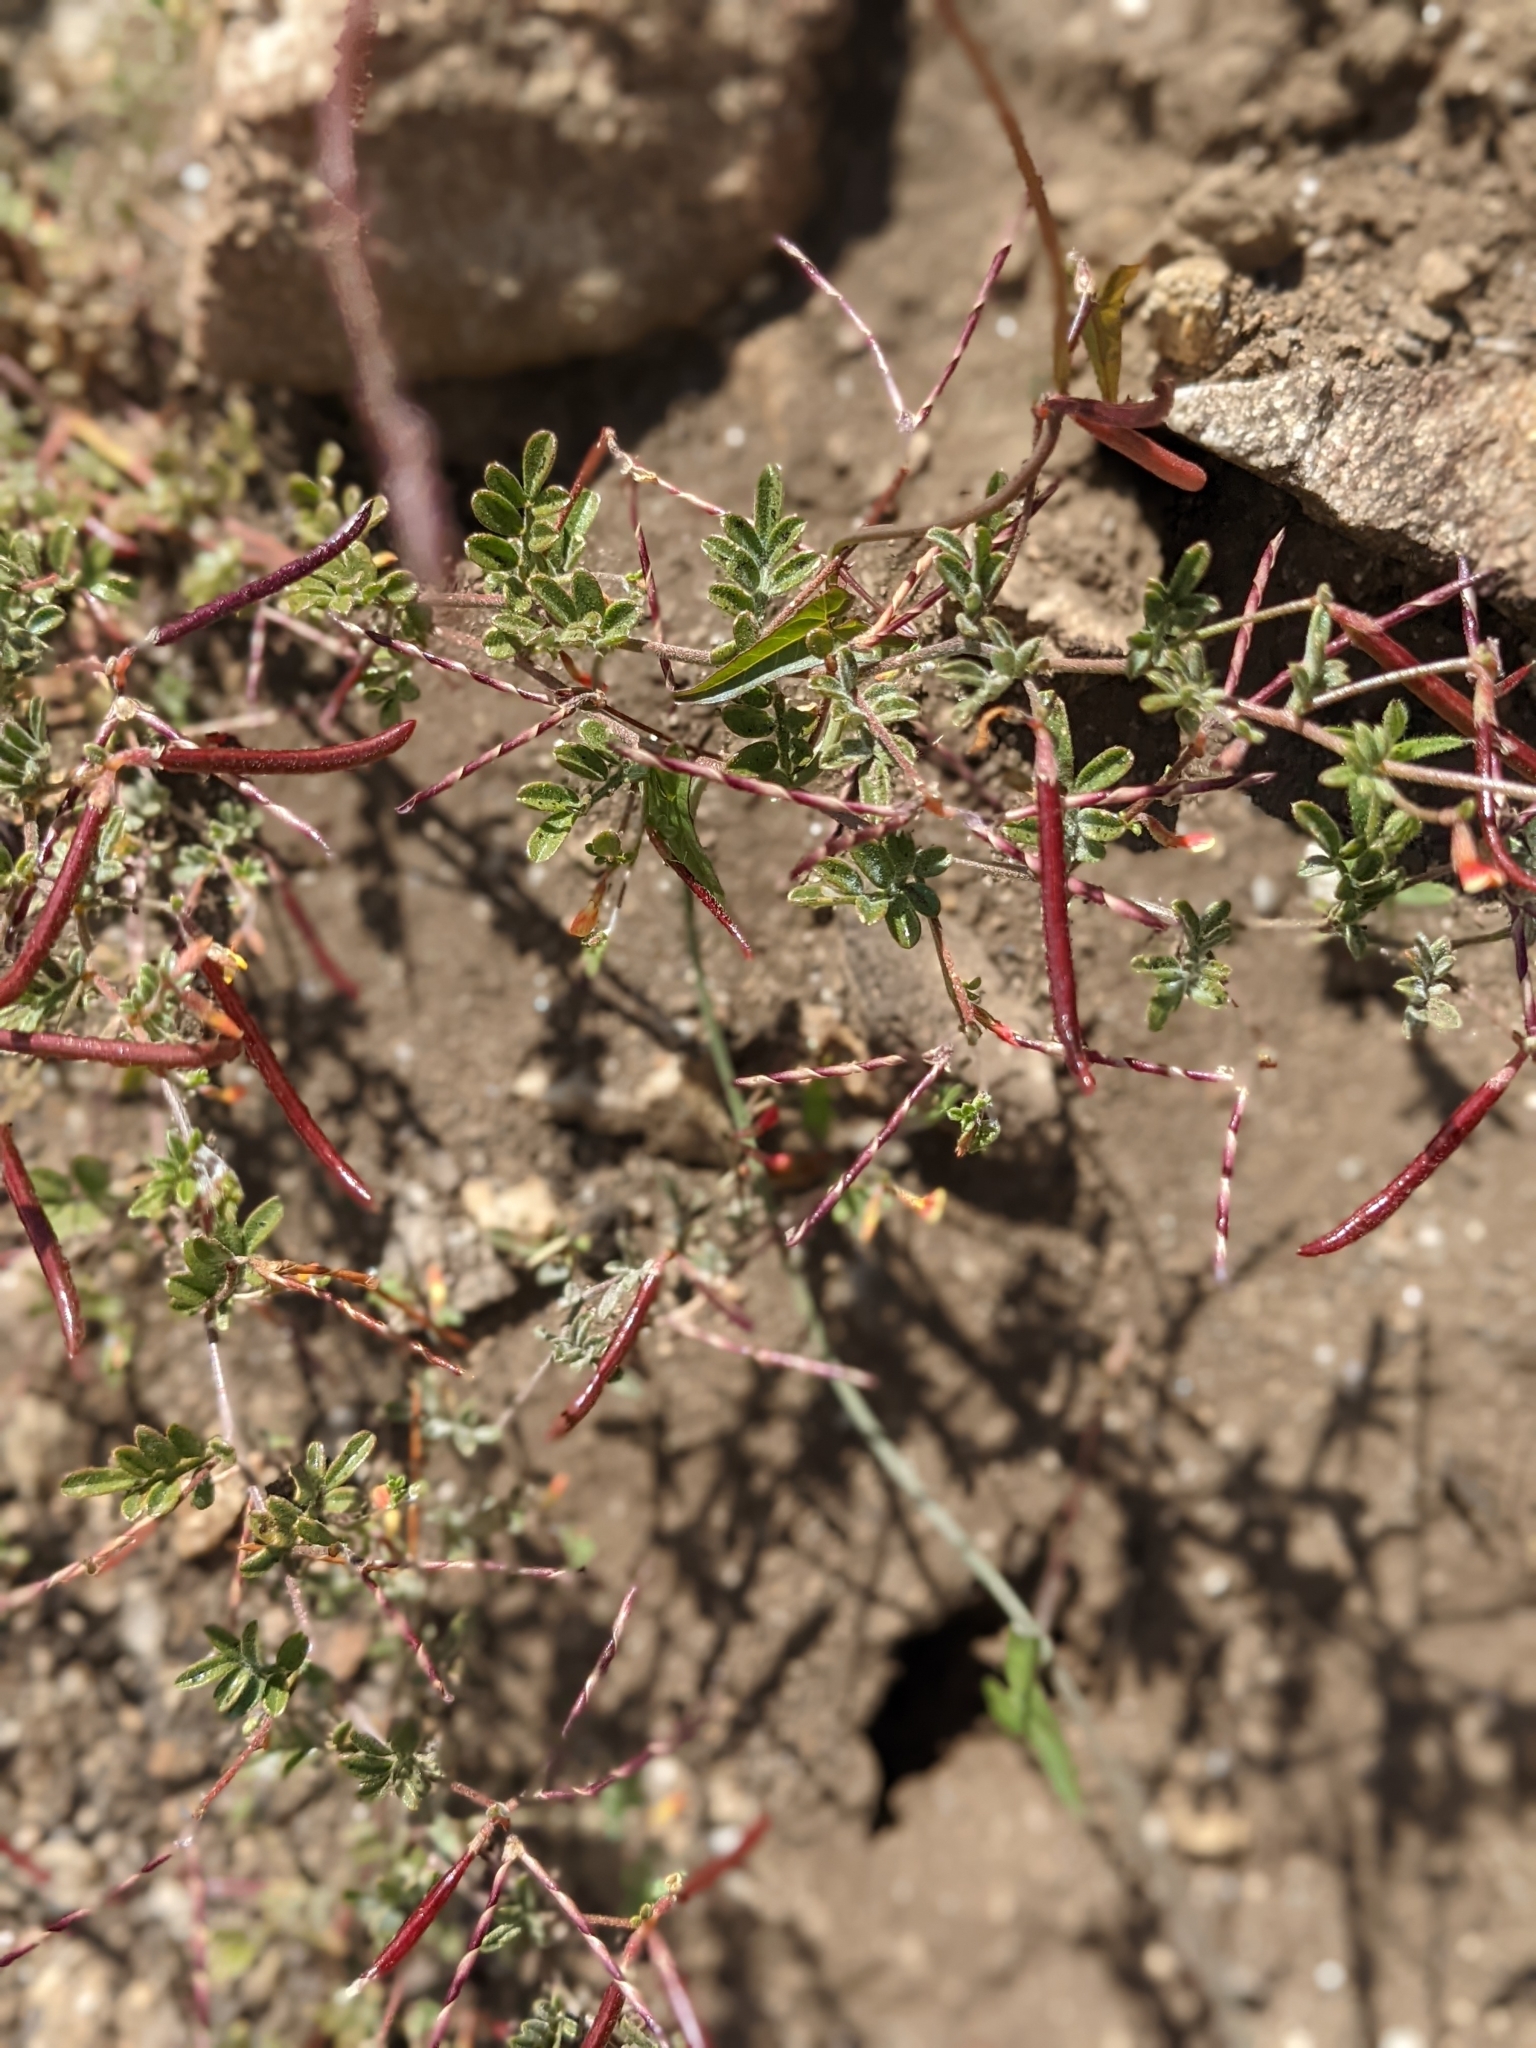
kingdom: Plantae
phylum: Tracheophyta
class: Magnoliopsida
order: Fabales
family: Fabaceae
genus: Acmispon
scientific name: Acmispon strigosus
